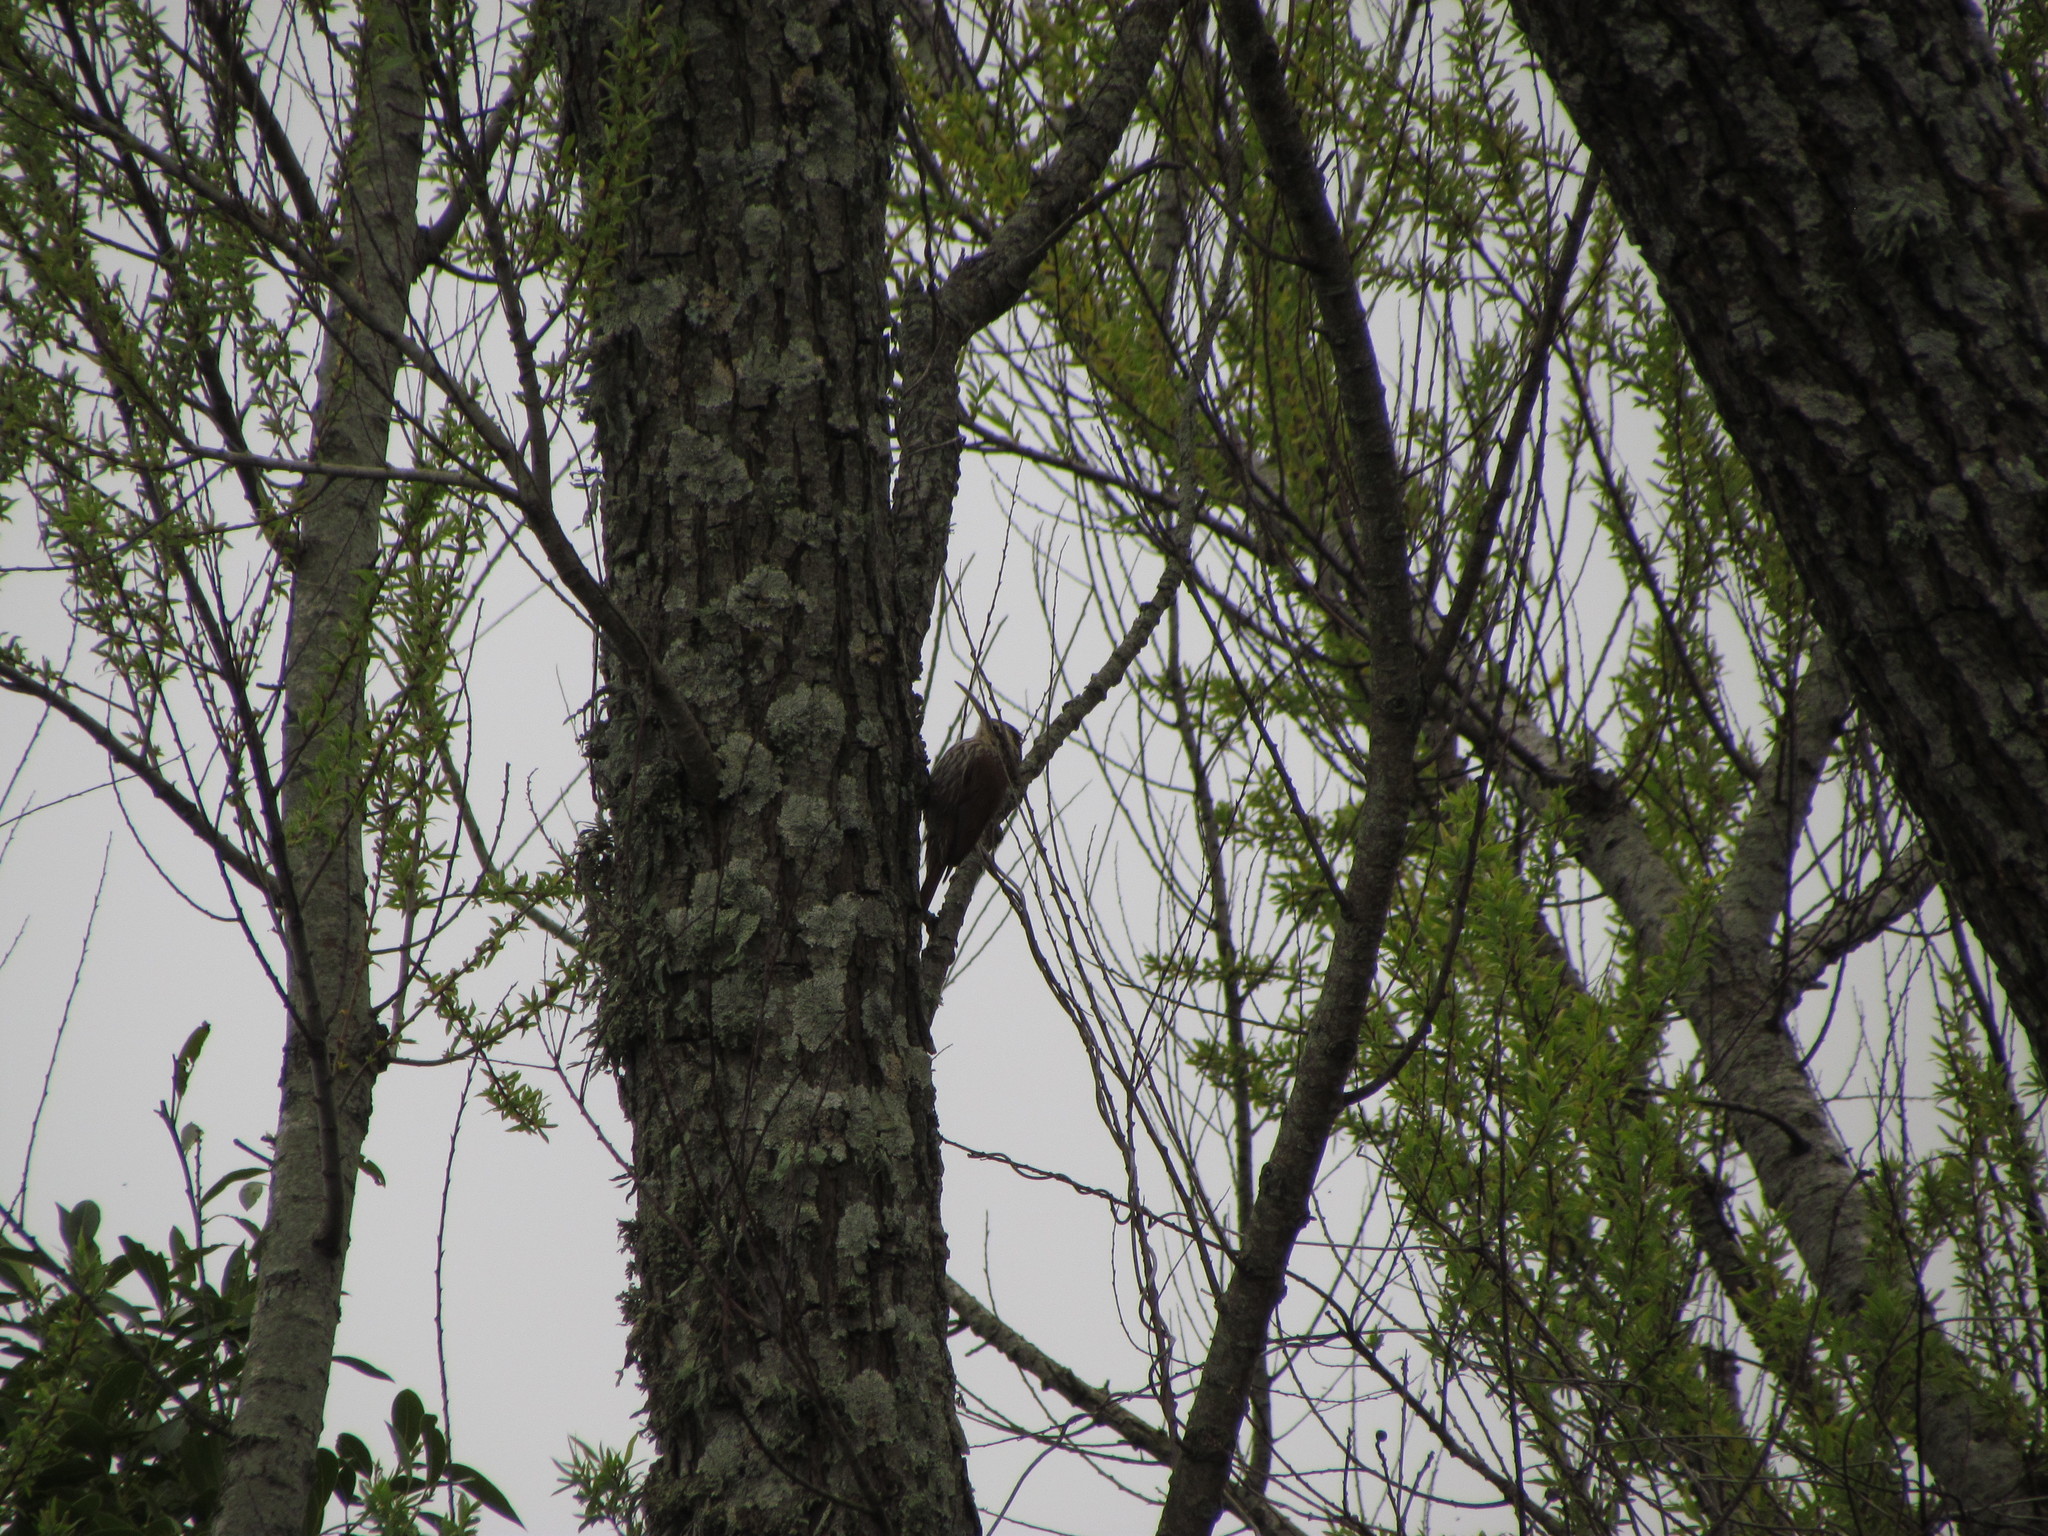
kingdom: Animalia
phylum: Chordata
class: Aves
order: Passeriformes
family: Furnariidae
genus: Lepidocolaptes
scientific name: Lepidocolaptes angustirostris
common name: Narrow-billed woodcreeper
